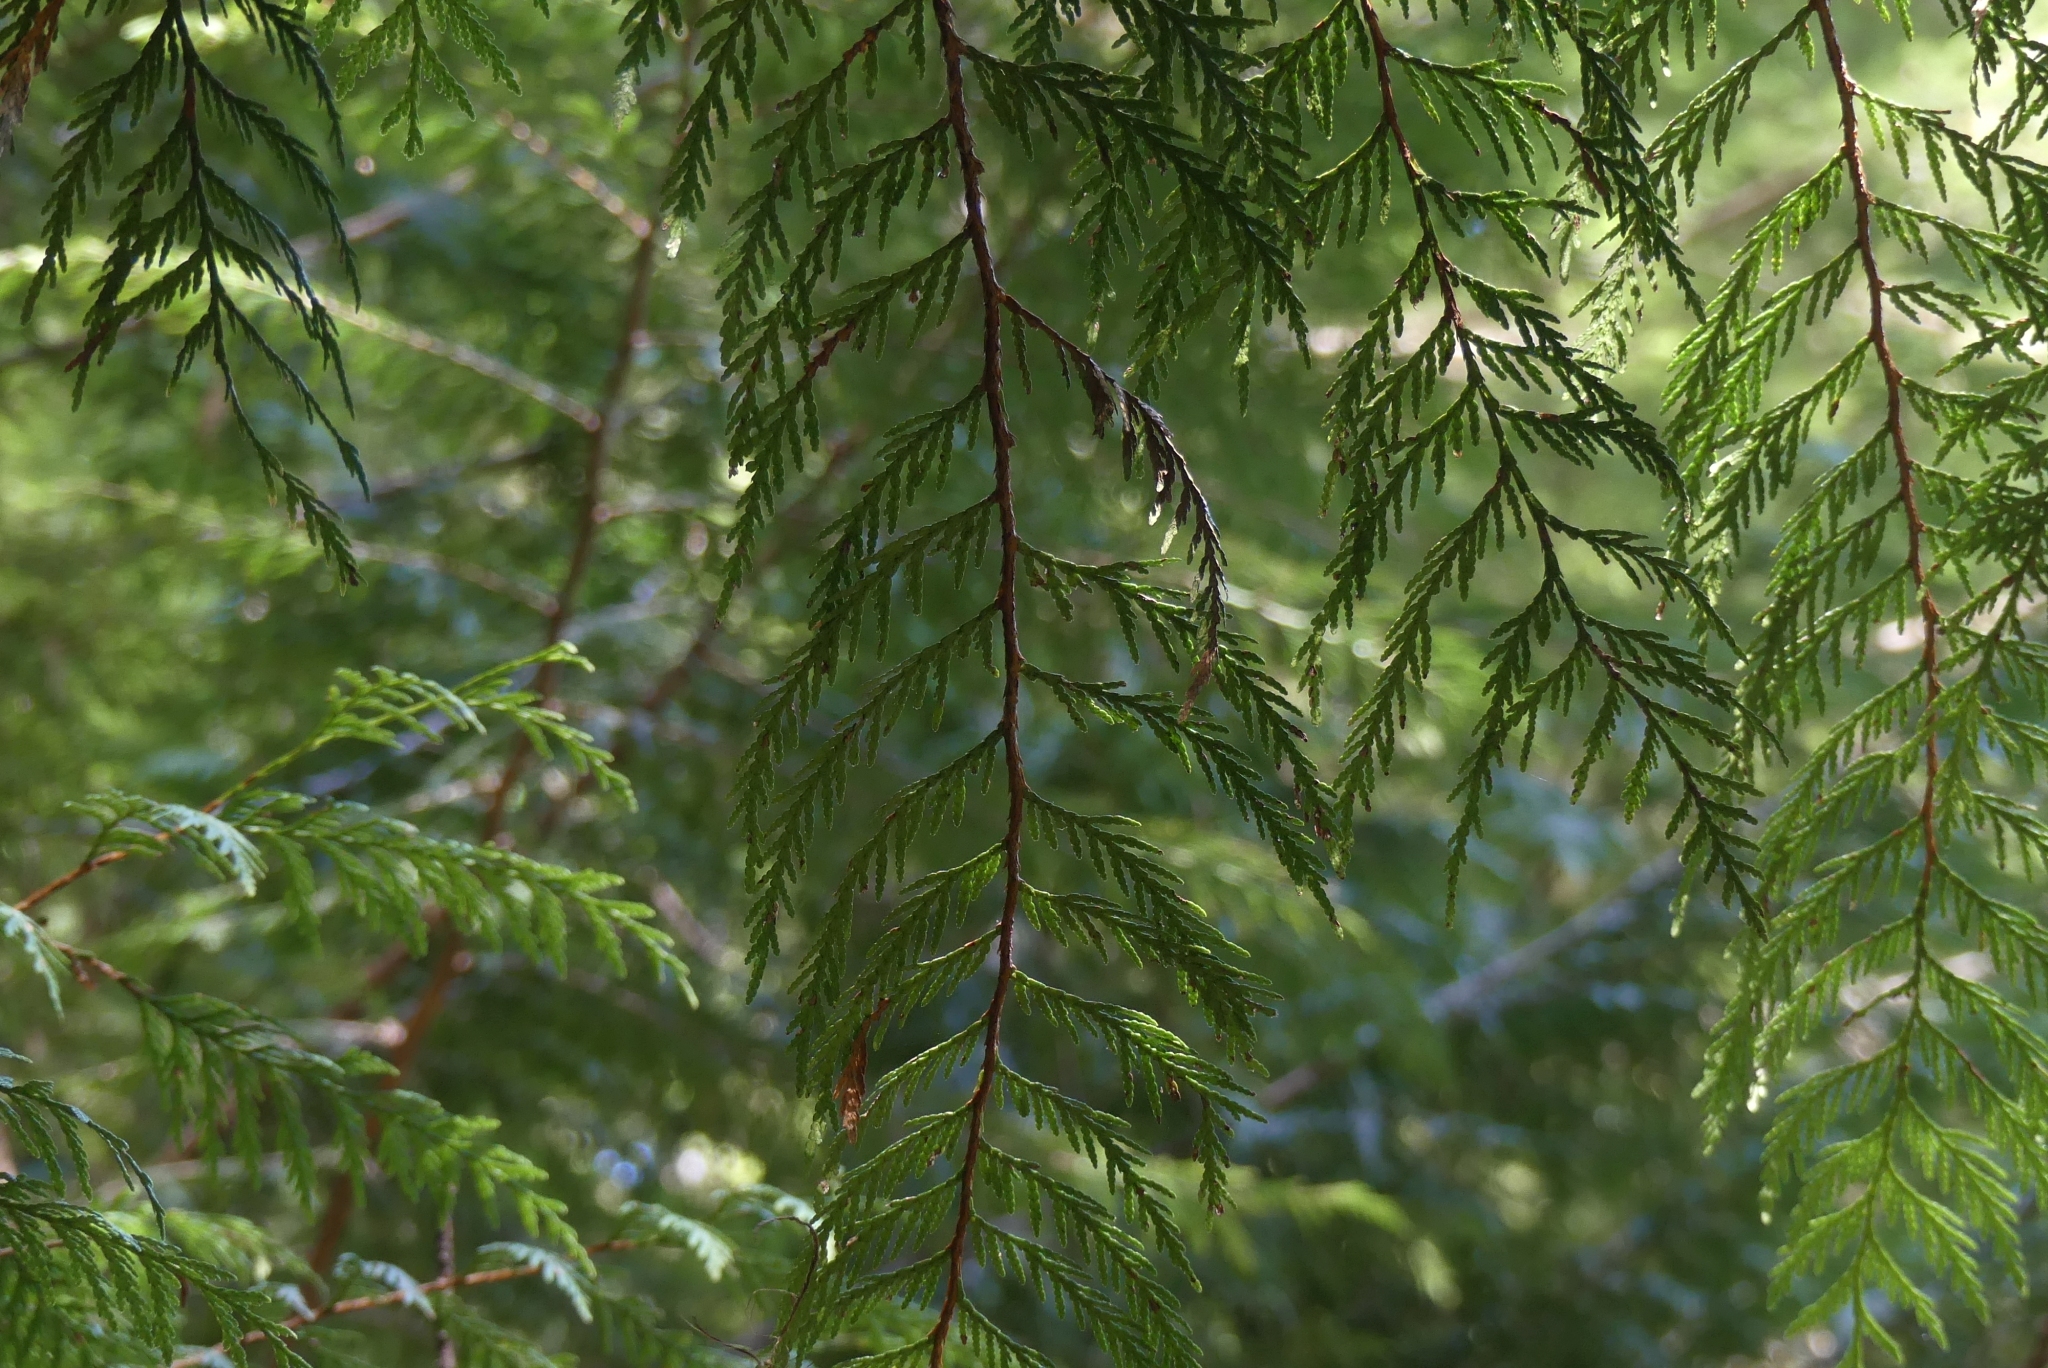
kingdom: Plantae
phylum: Tracheophyta
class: Pinopsida
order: Pinales
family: Cupressaceae
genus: Thuja
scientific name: Thuja plicata
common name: Western red-cedar
